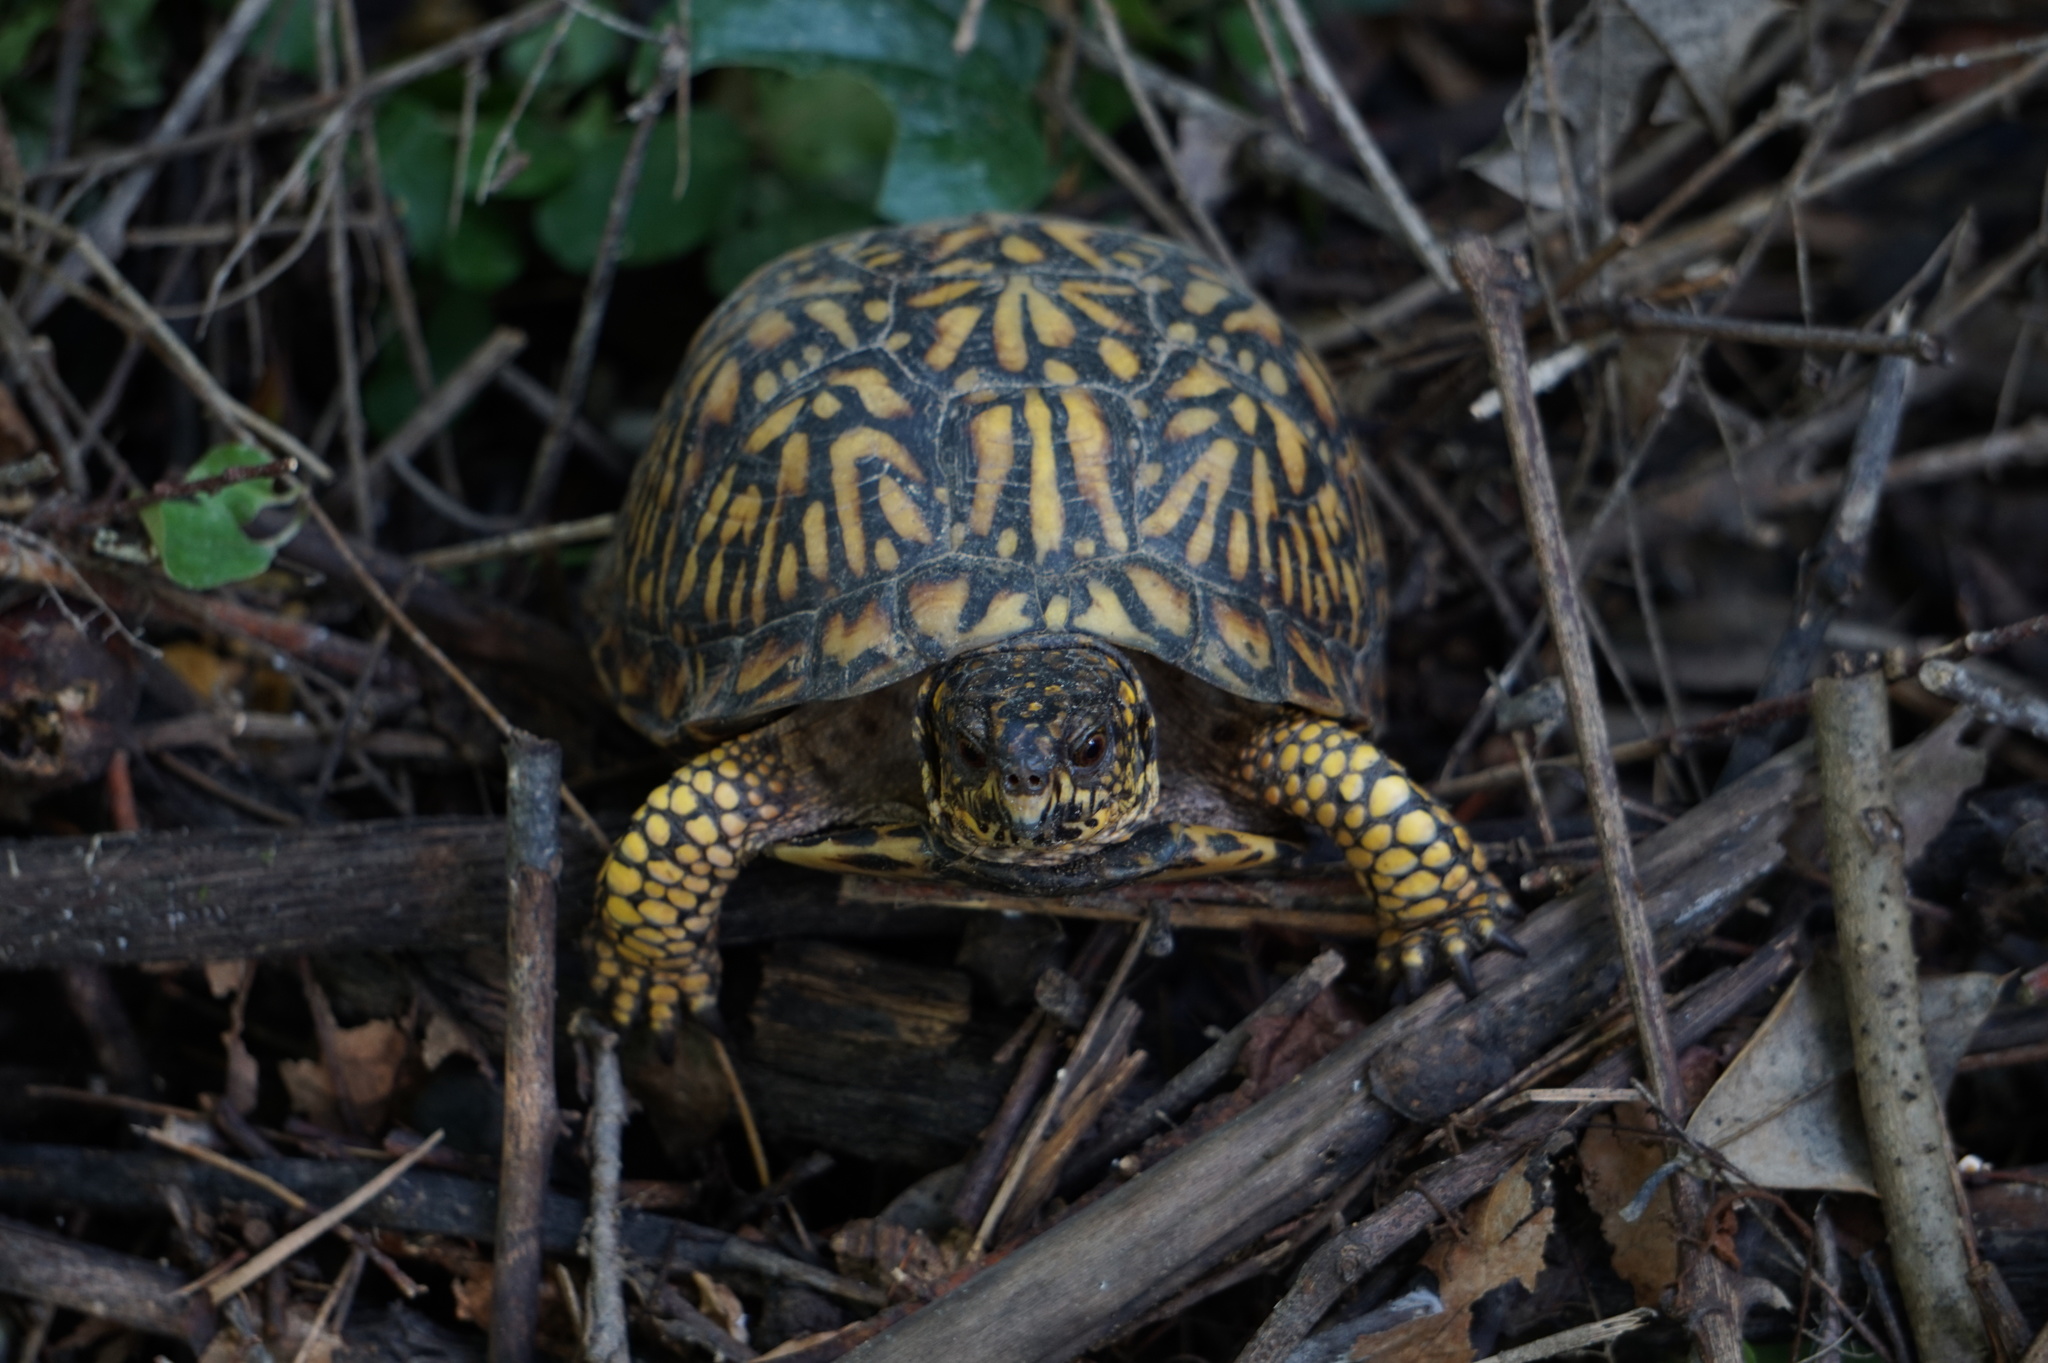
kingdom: Animalia
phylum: Chordata
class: Testudines
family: Emydidae
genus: Terrapene
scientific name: Terrapene carolina
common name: Common box turtle
